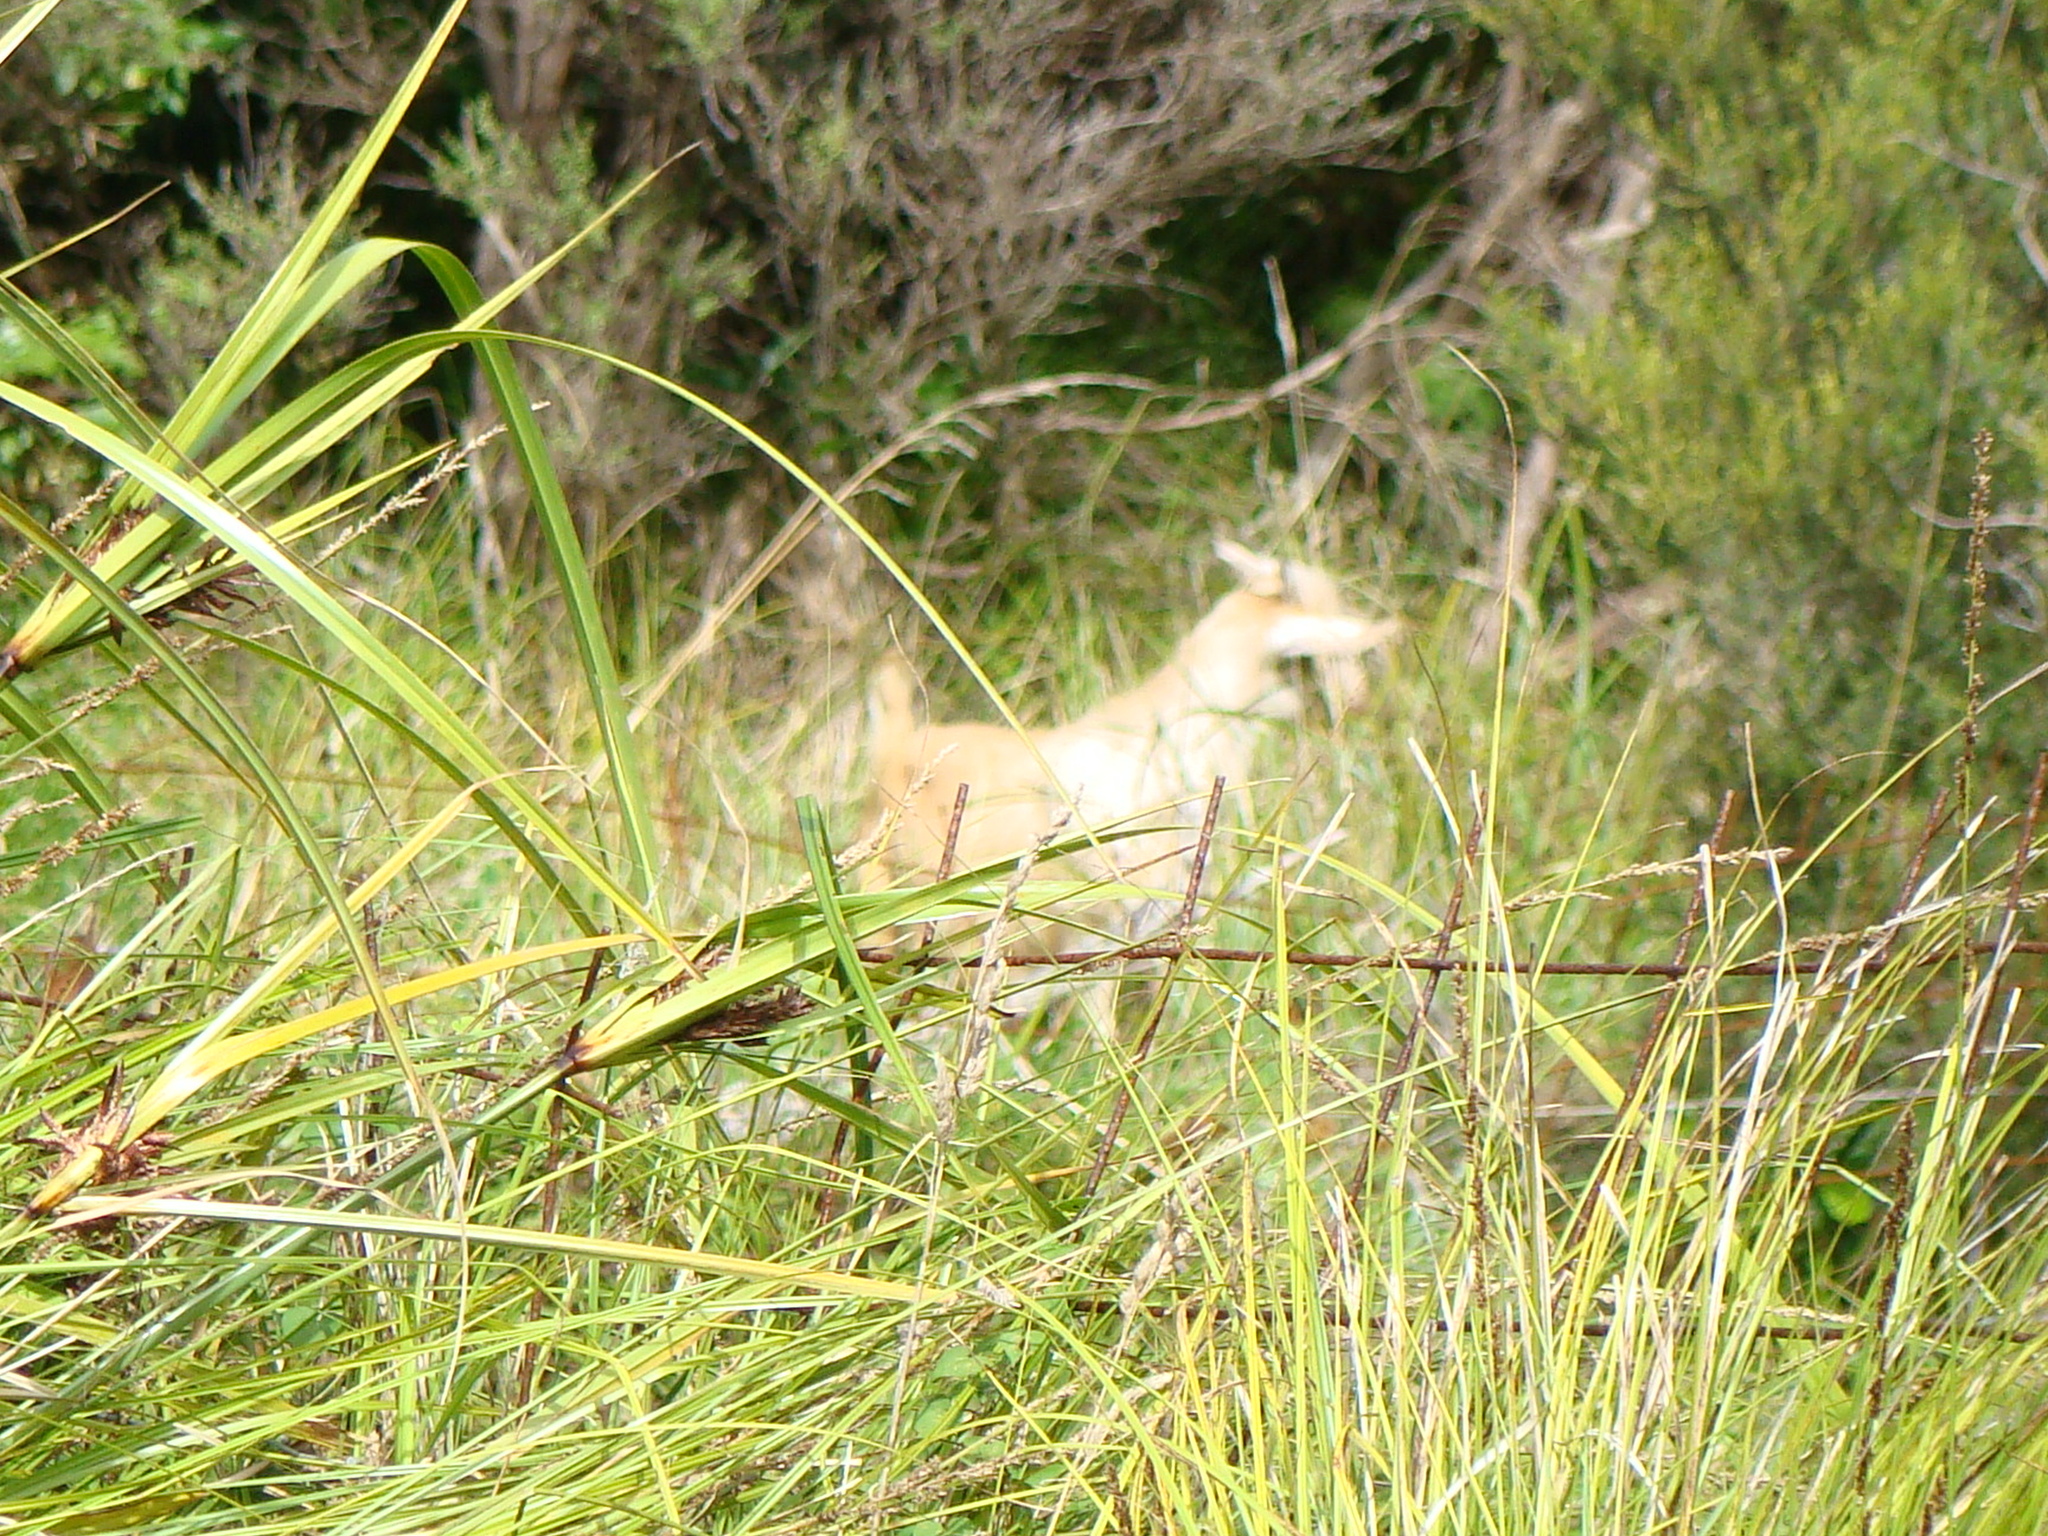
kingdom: Animalia
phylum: Chordata
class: Mammalia
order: Artiodactyla
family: Bovidae
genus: Capra
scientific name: Capra hircus
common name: Domestic goat
